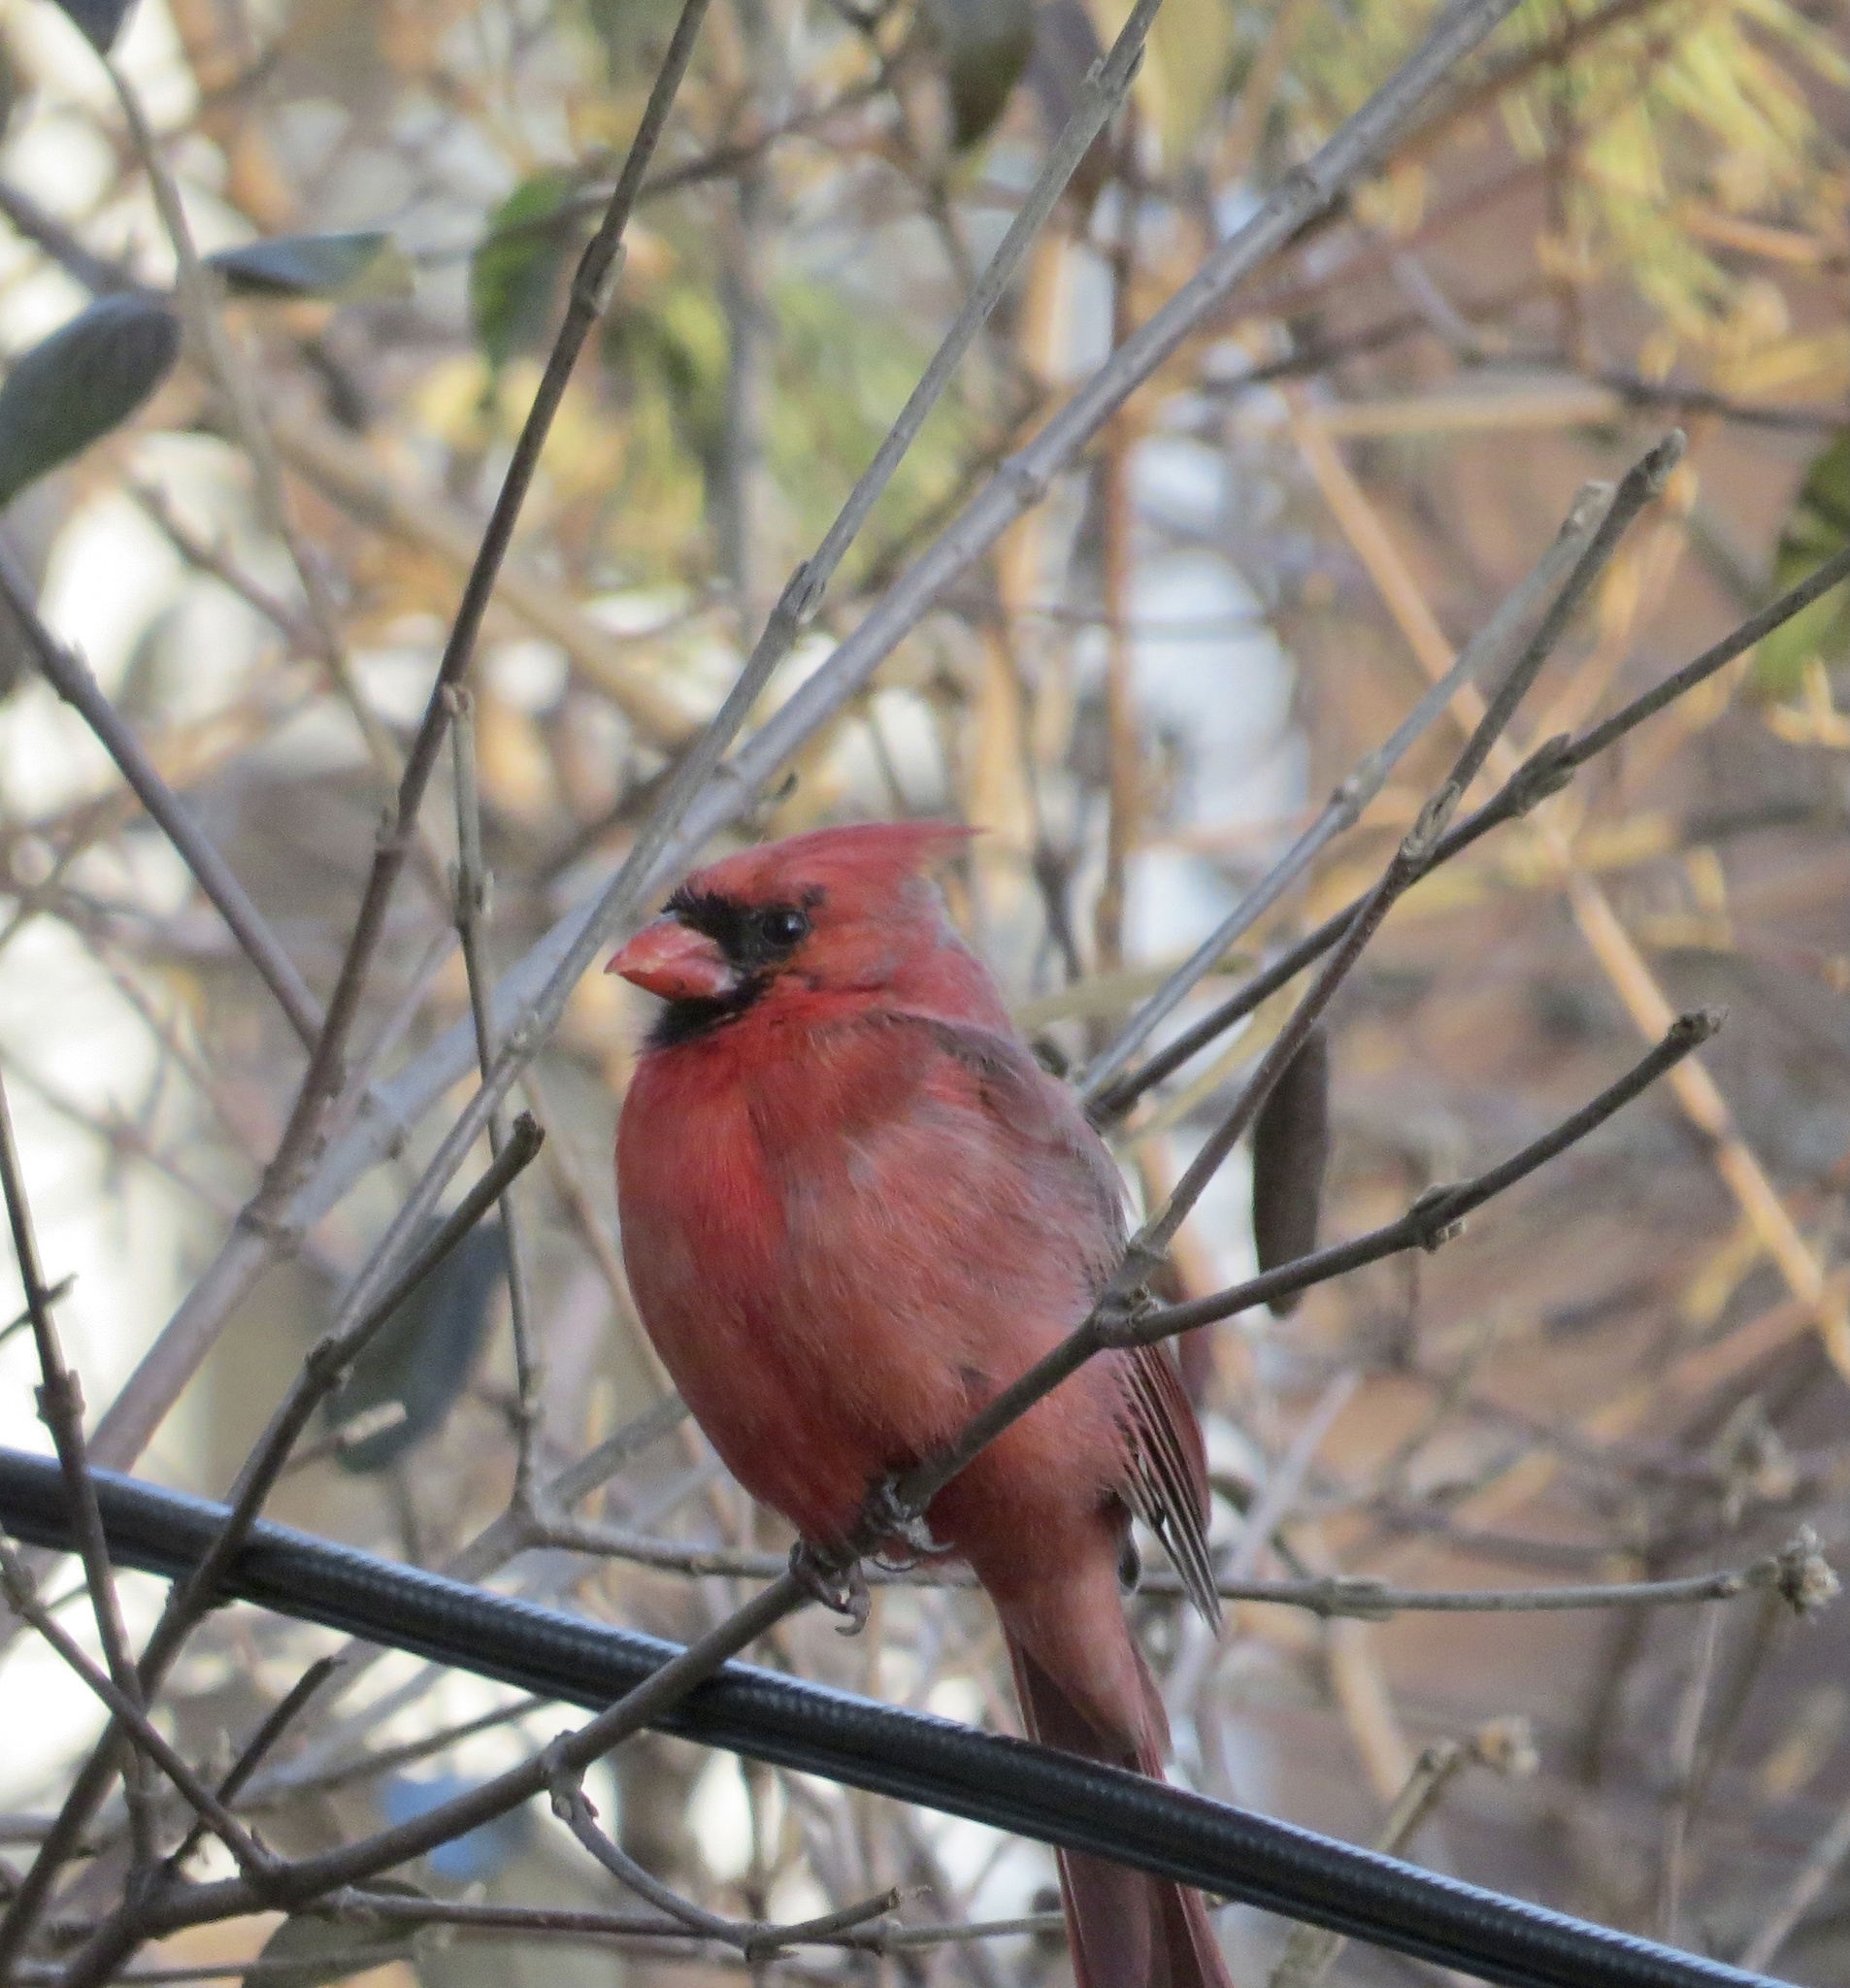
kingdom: Animalia
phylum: Chordata
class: Aves
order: Passeriformes
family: Cardinalidae
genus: Cardinalis
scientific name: Cardinalis cardinalis
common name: Northern cardinal
